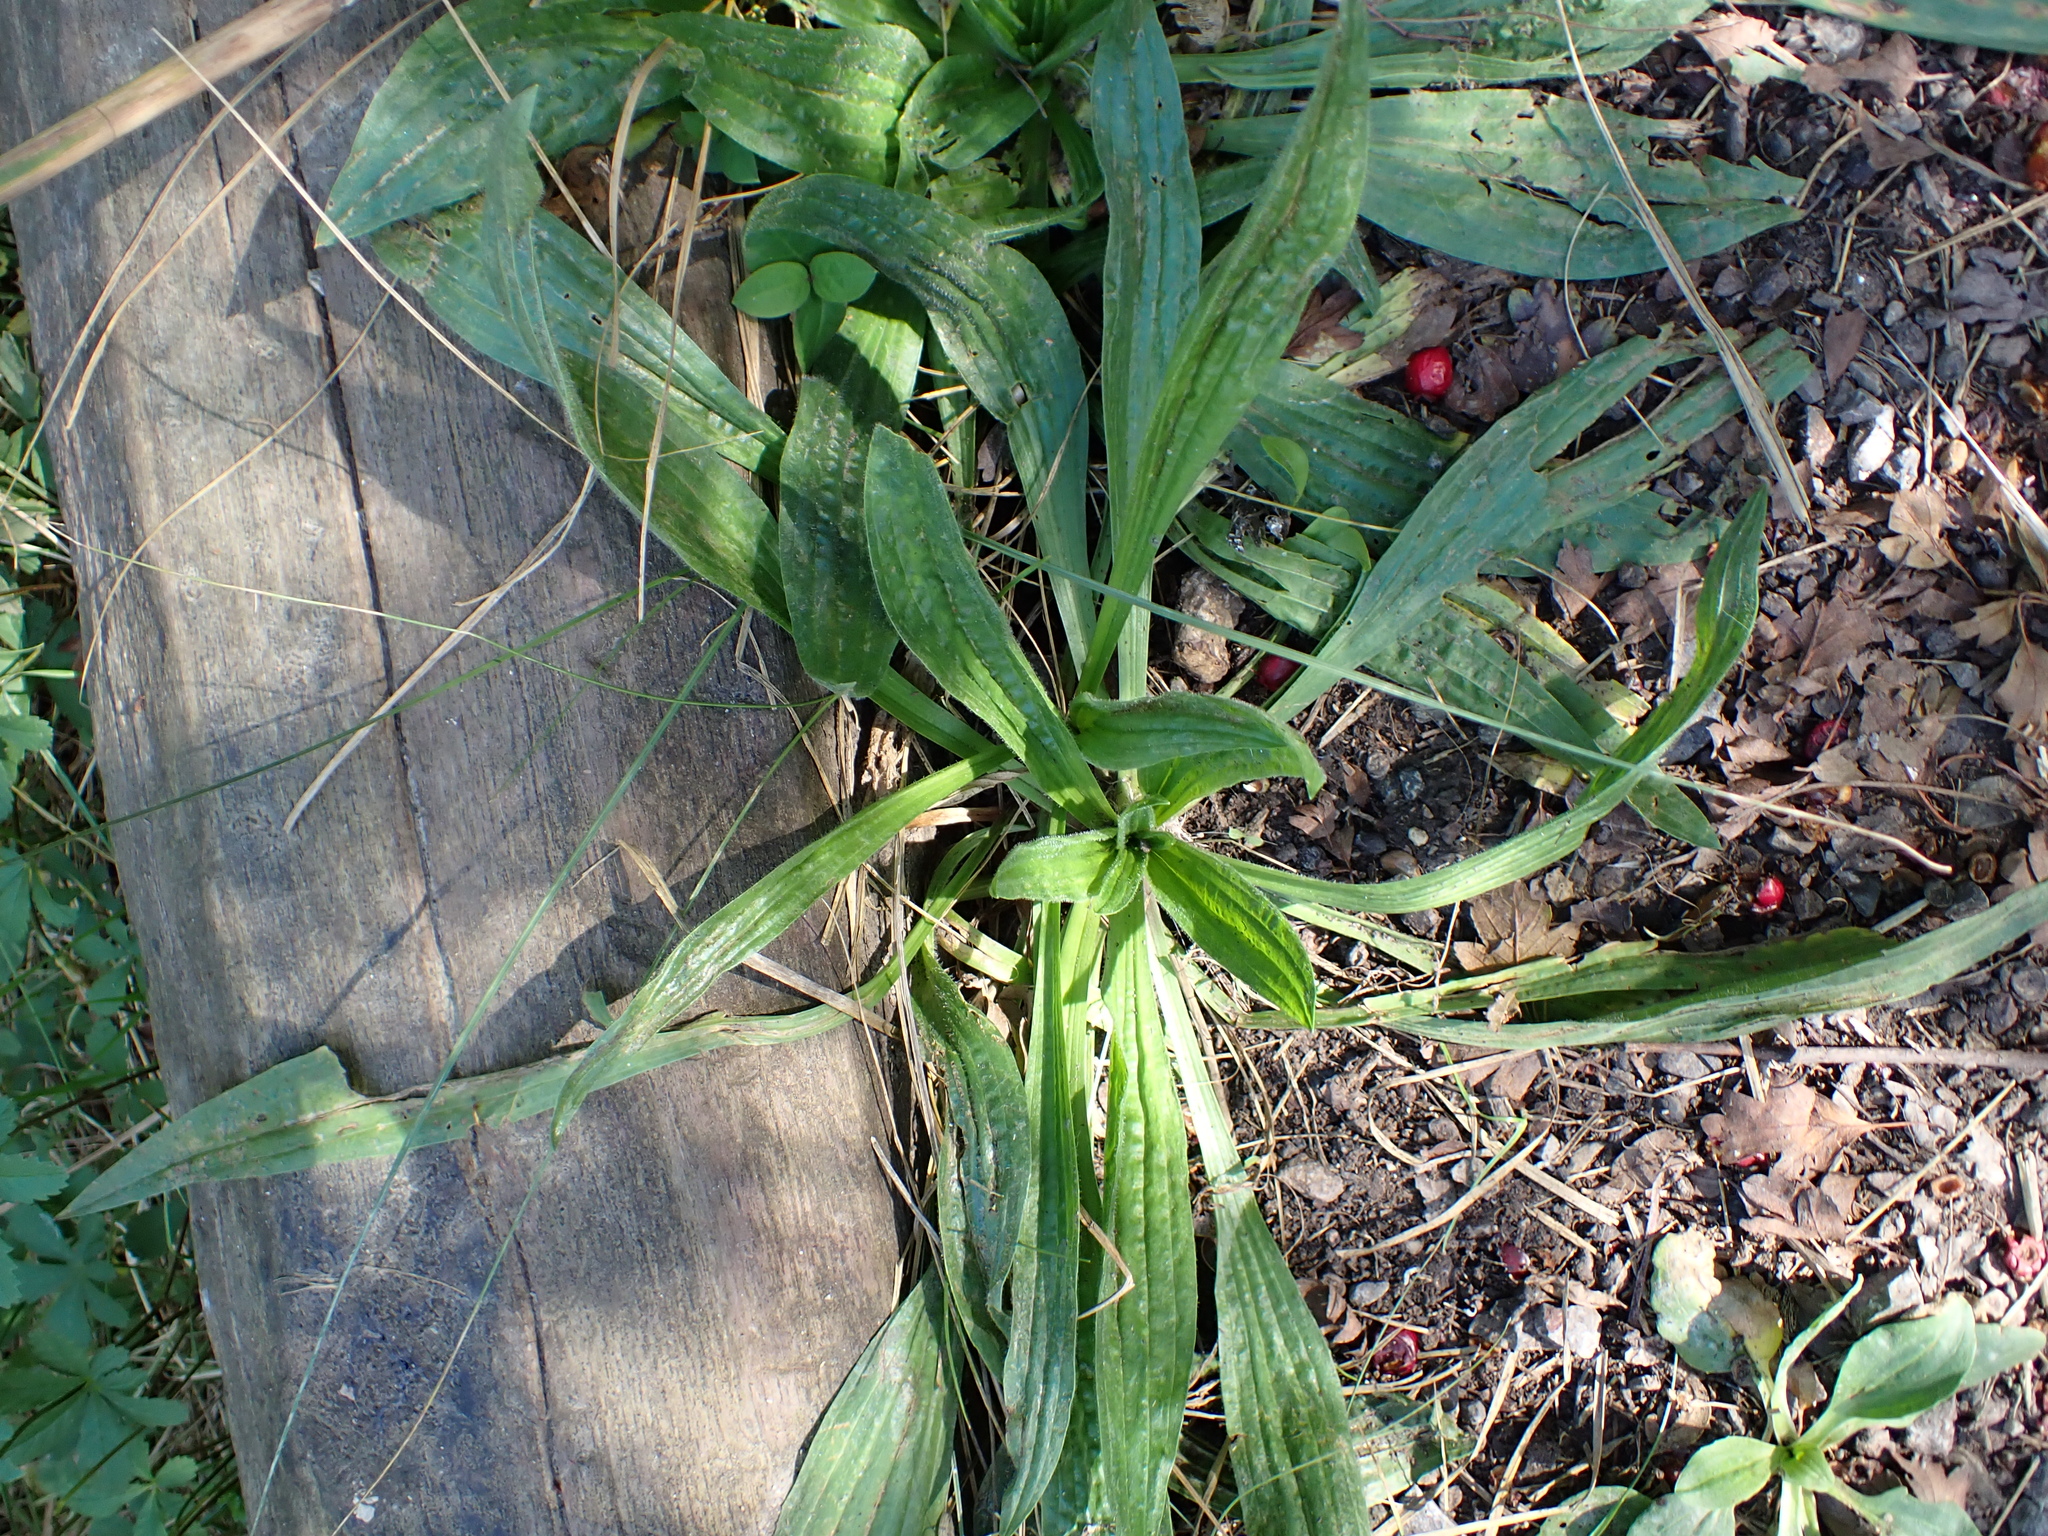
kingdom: Plantae
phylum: Tracheophyta
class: Magnoliopsida
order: Lamiales
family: Plantaginaceae
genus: Plantago
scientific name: Plantago lanceolata
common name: Ribwort plantain
